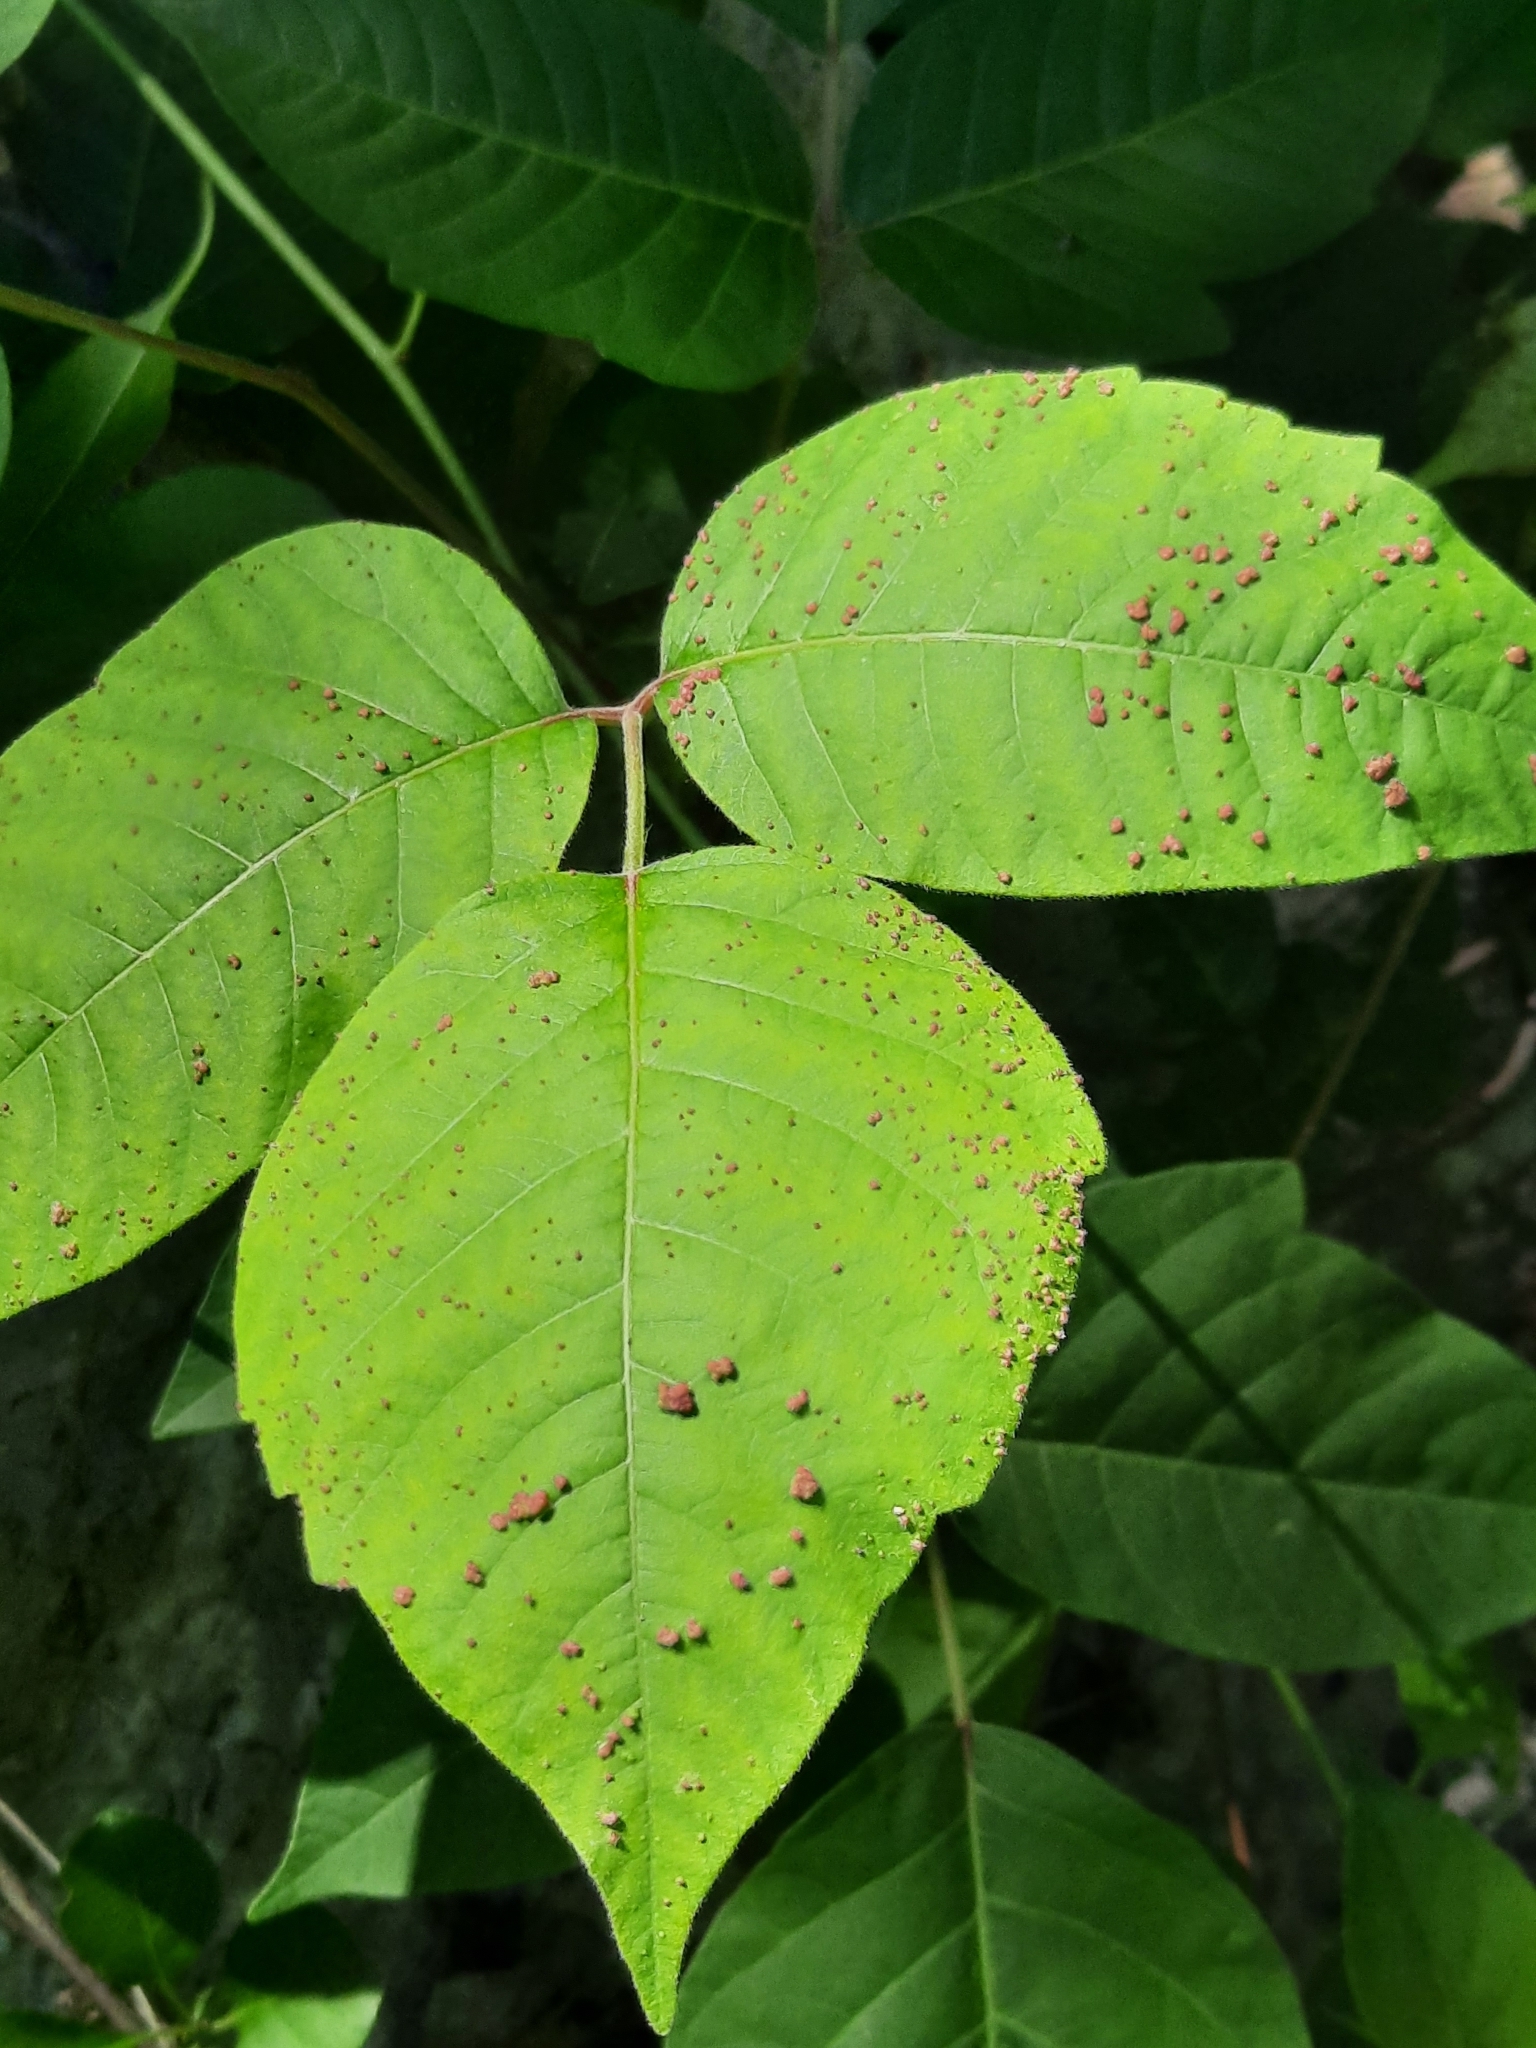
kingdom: Animalia
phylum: Arthropoda
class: Arachnida
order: Trombidiformes
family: Eriophyidae
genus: Aculops
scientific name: Aculops
